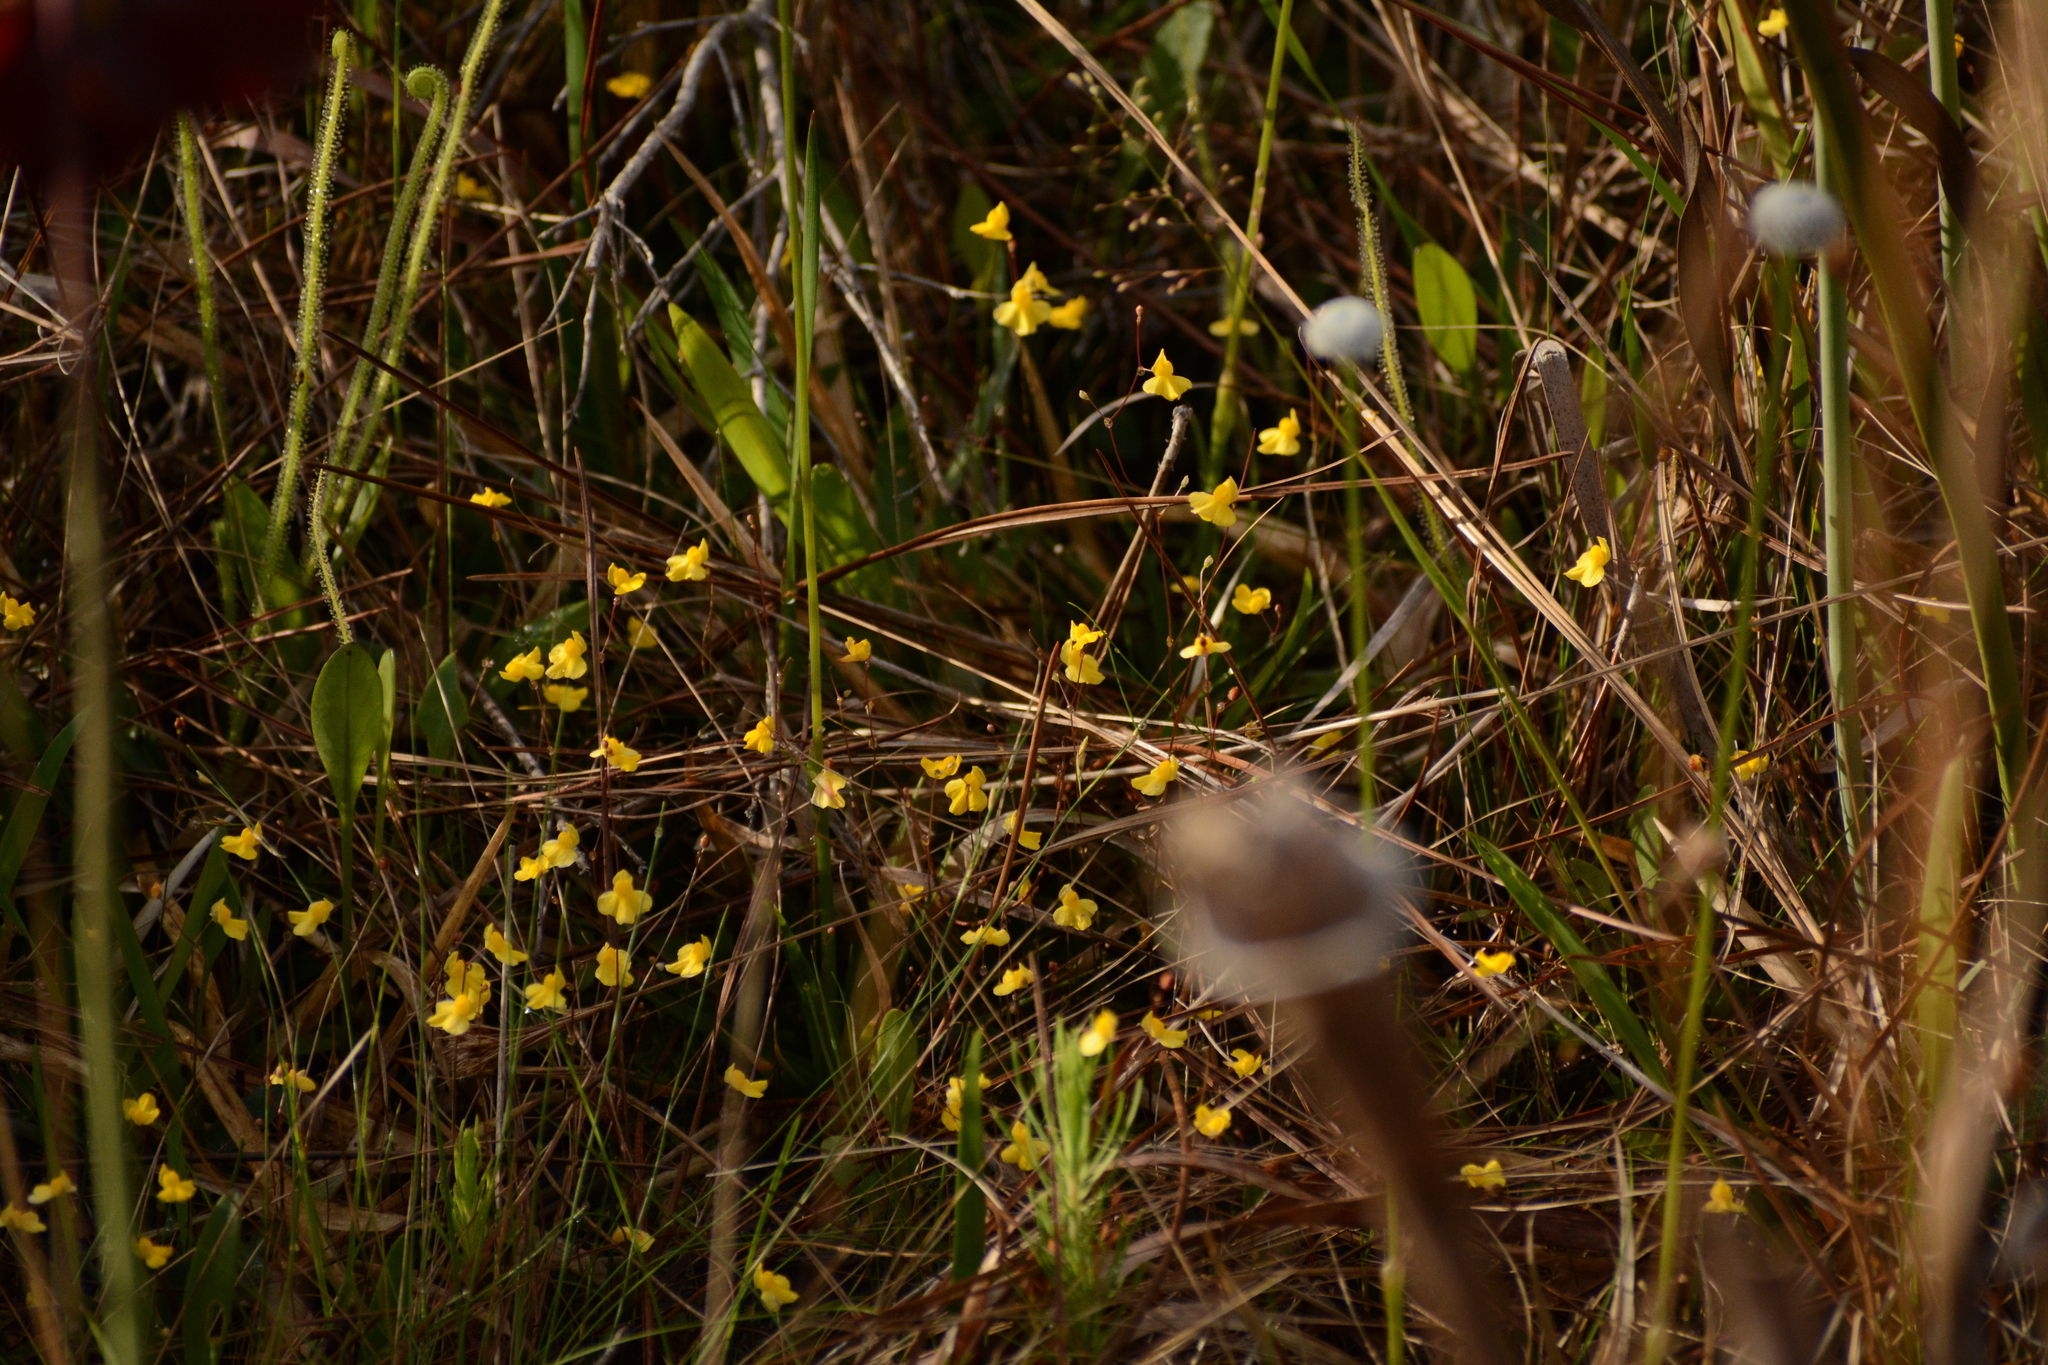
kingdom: Plantae
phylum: Tracheophyta
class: Magnoliopsida
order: Lamiales
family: Lentibulariaceae
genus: Utricularia
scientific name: Utricularia subulata
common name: Tiny bladderwort
